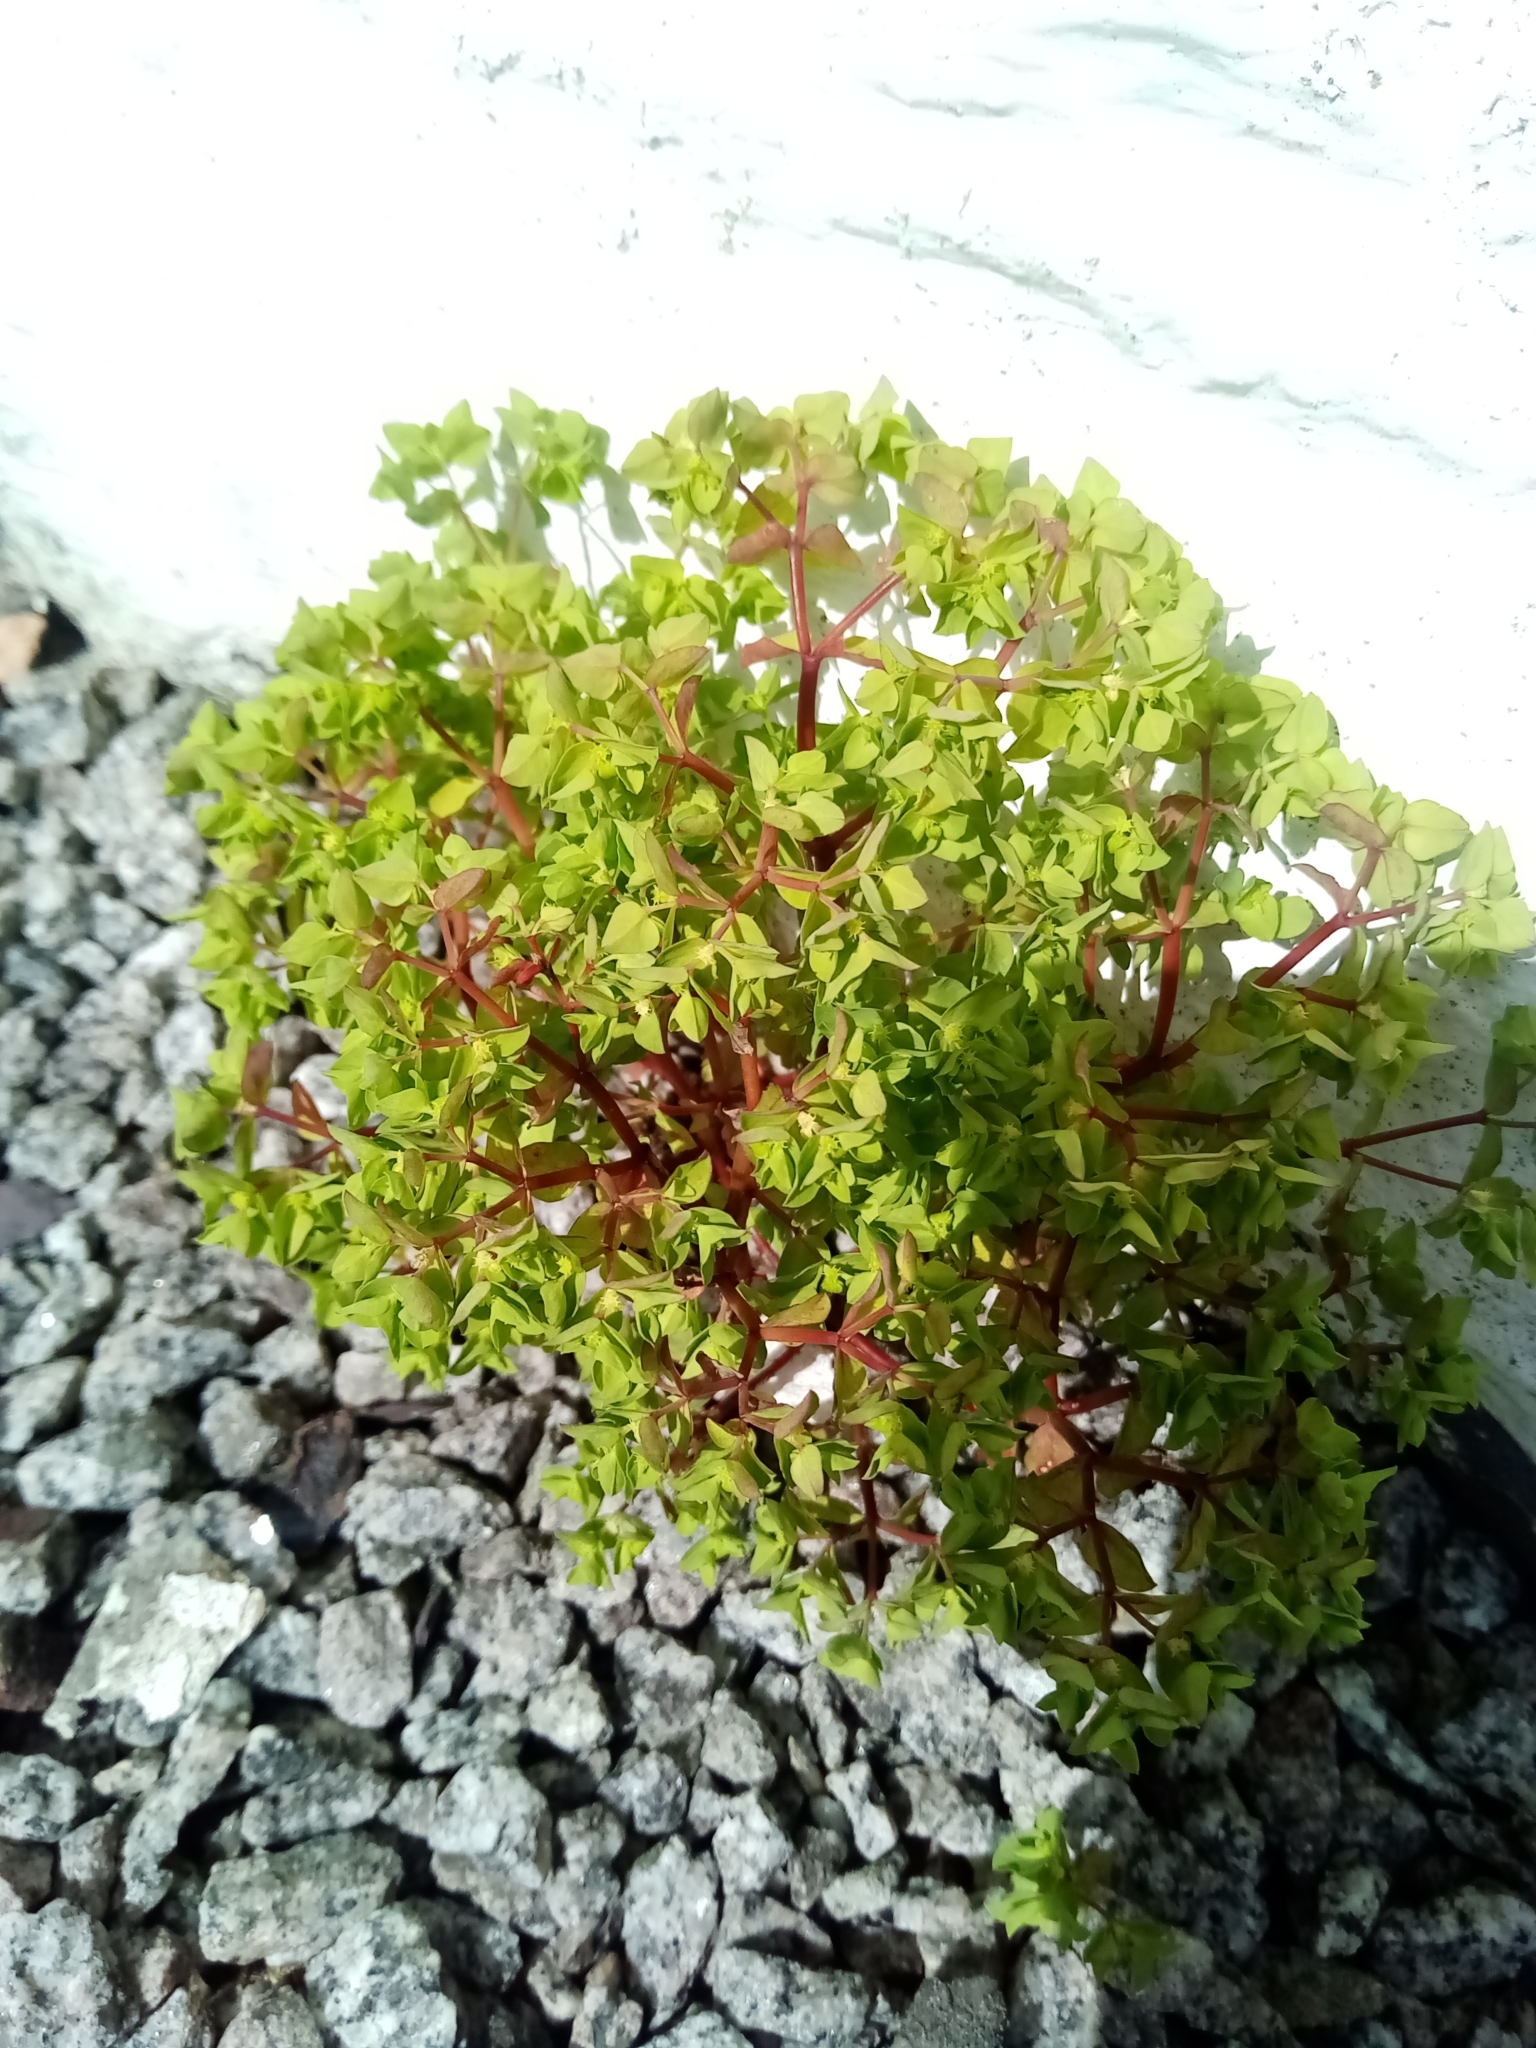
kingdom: Plantae
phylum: Tracheophyta
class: Magnoliopsida
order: Malpighiales
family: Euphorbiaceae
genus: Euphorbia
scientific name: Euphorbia peplus
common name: Petty spurge
